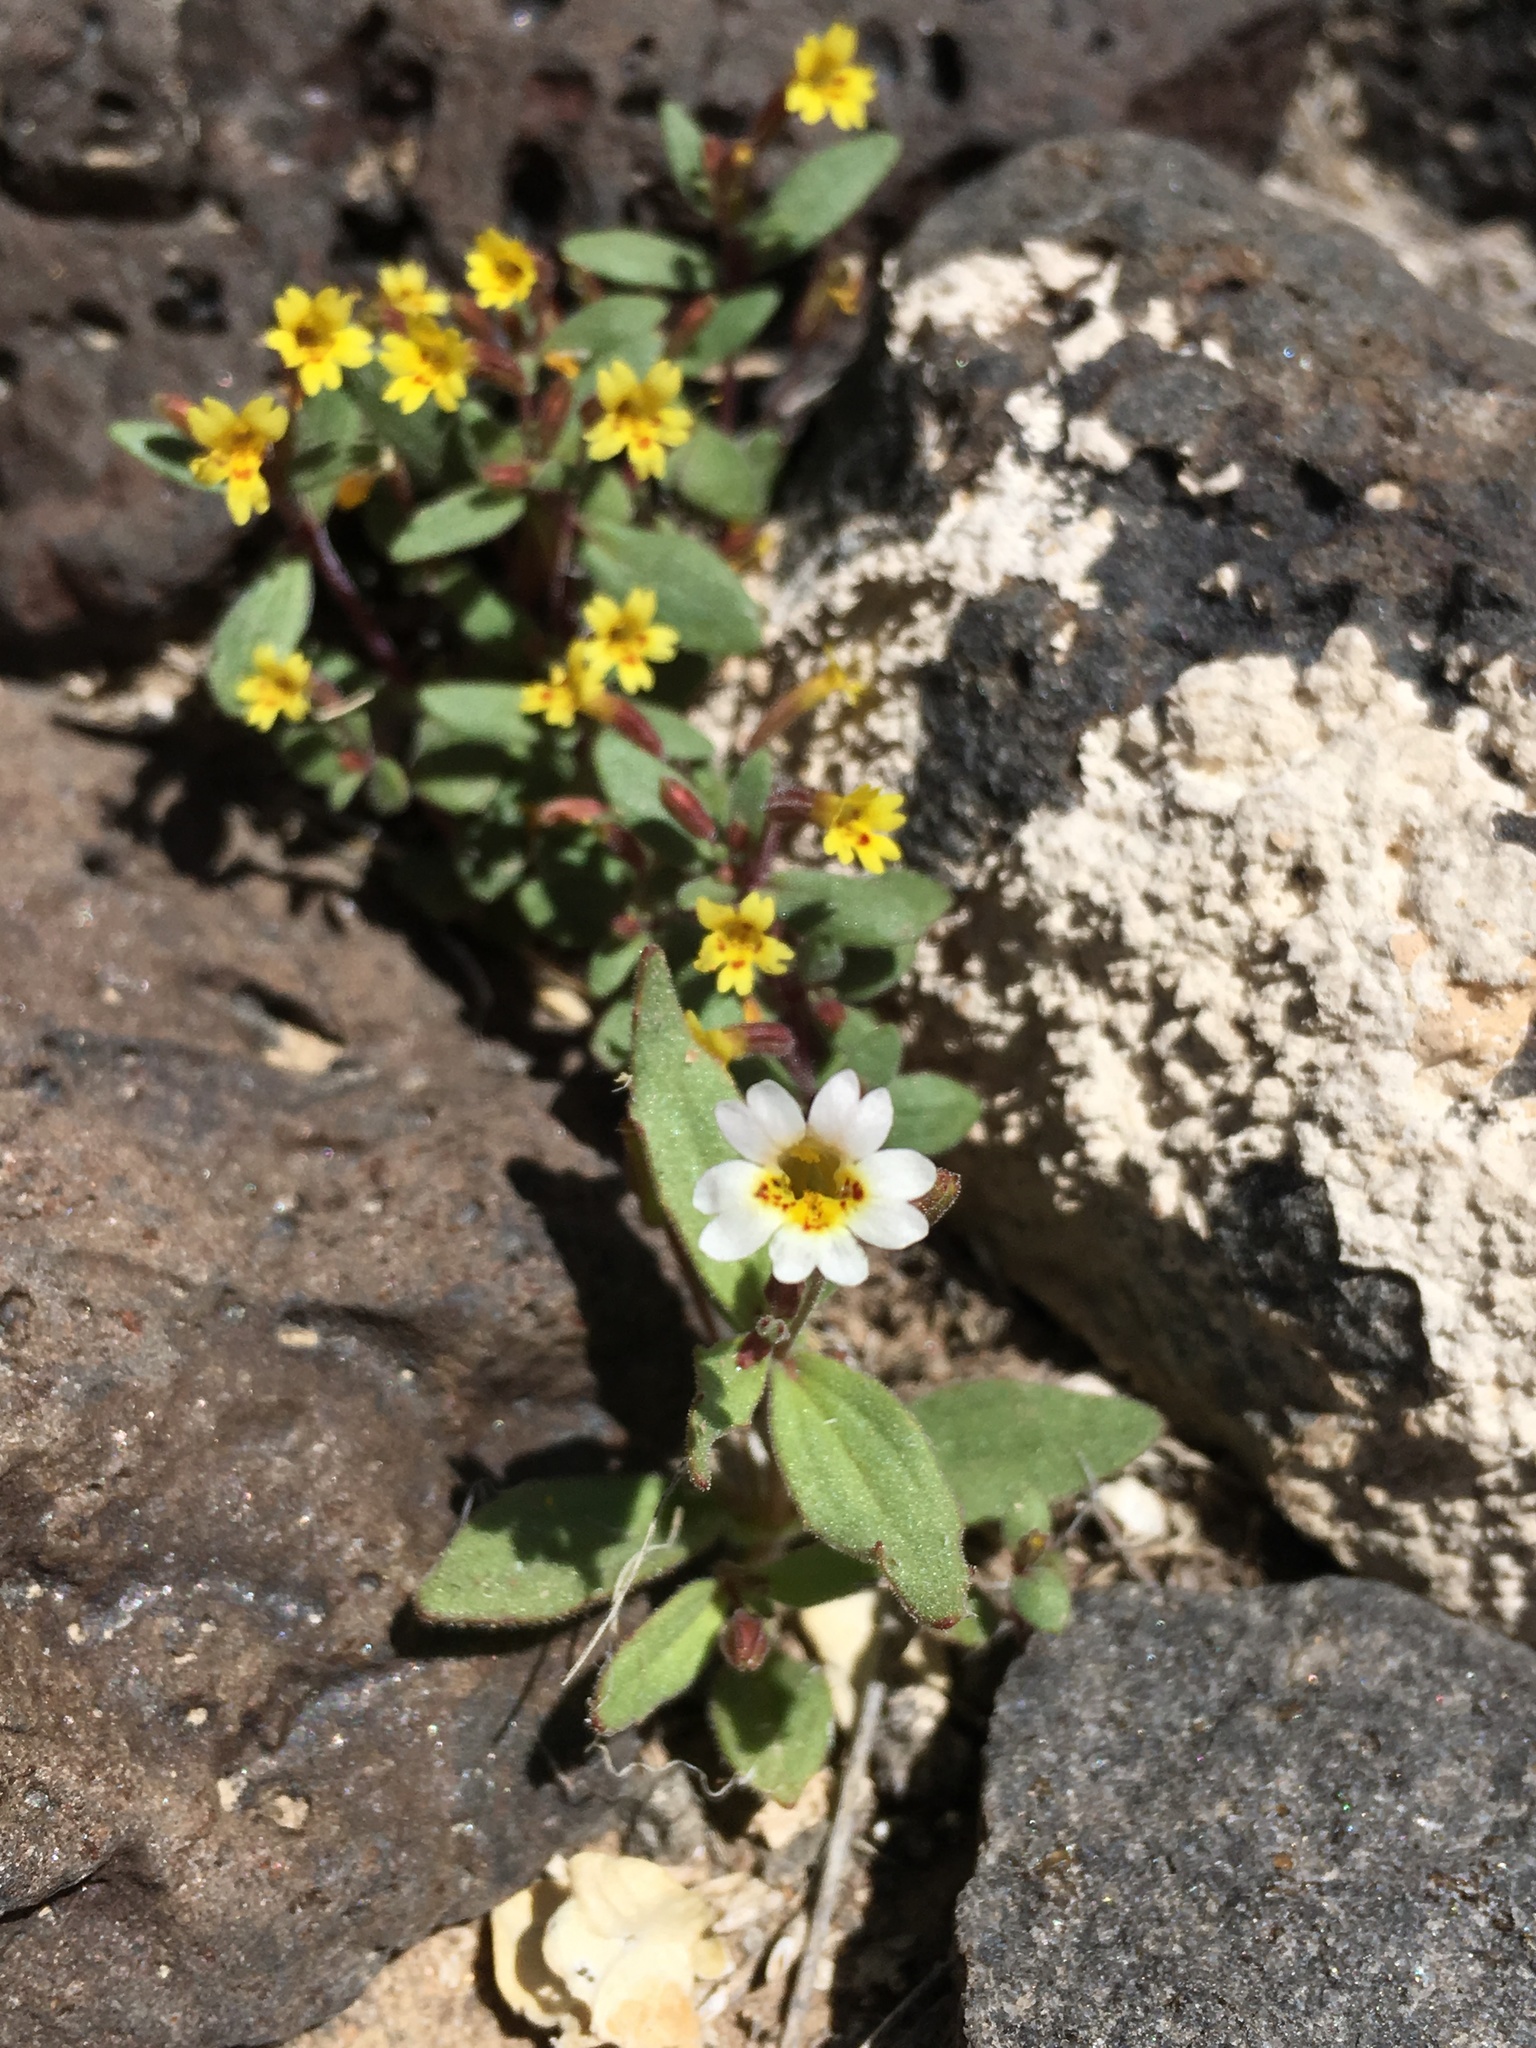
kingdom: Plantae
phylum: Tracheophyta
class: Magnoliopsida
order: Lamiales
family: Phrymaceae
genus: Erythranthe
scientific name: Erythranthe calcicola
